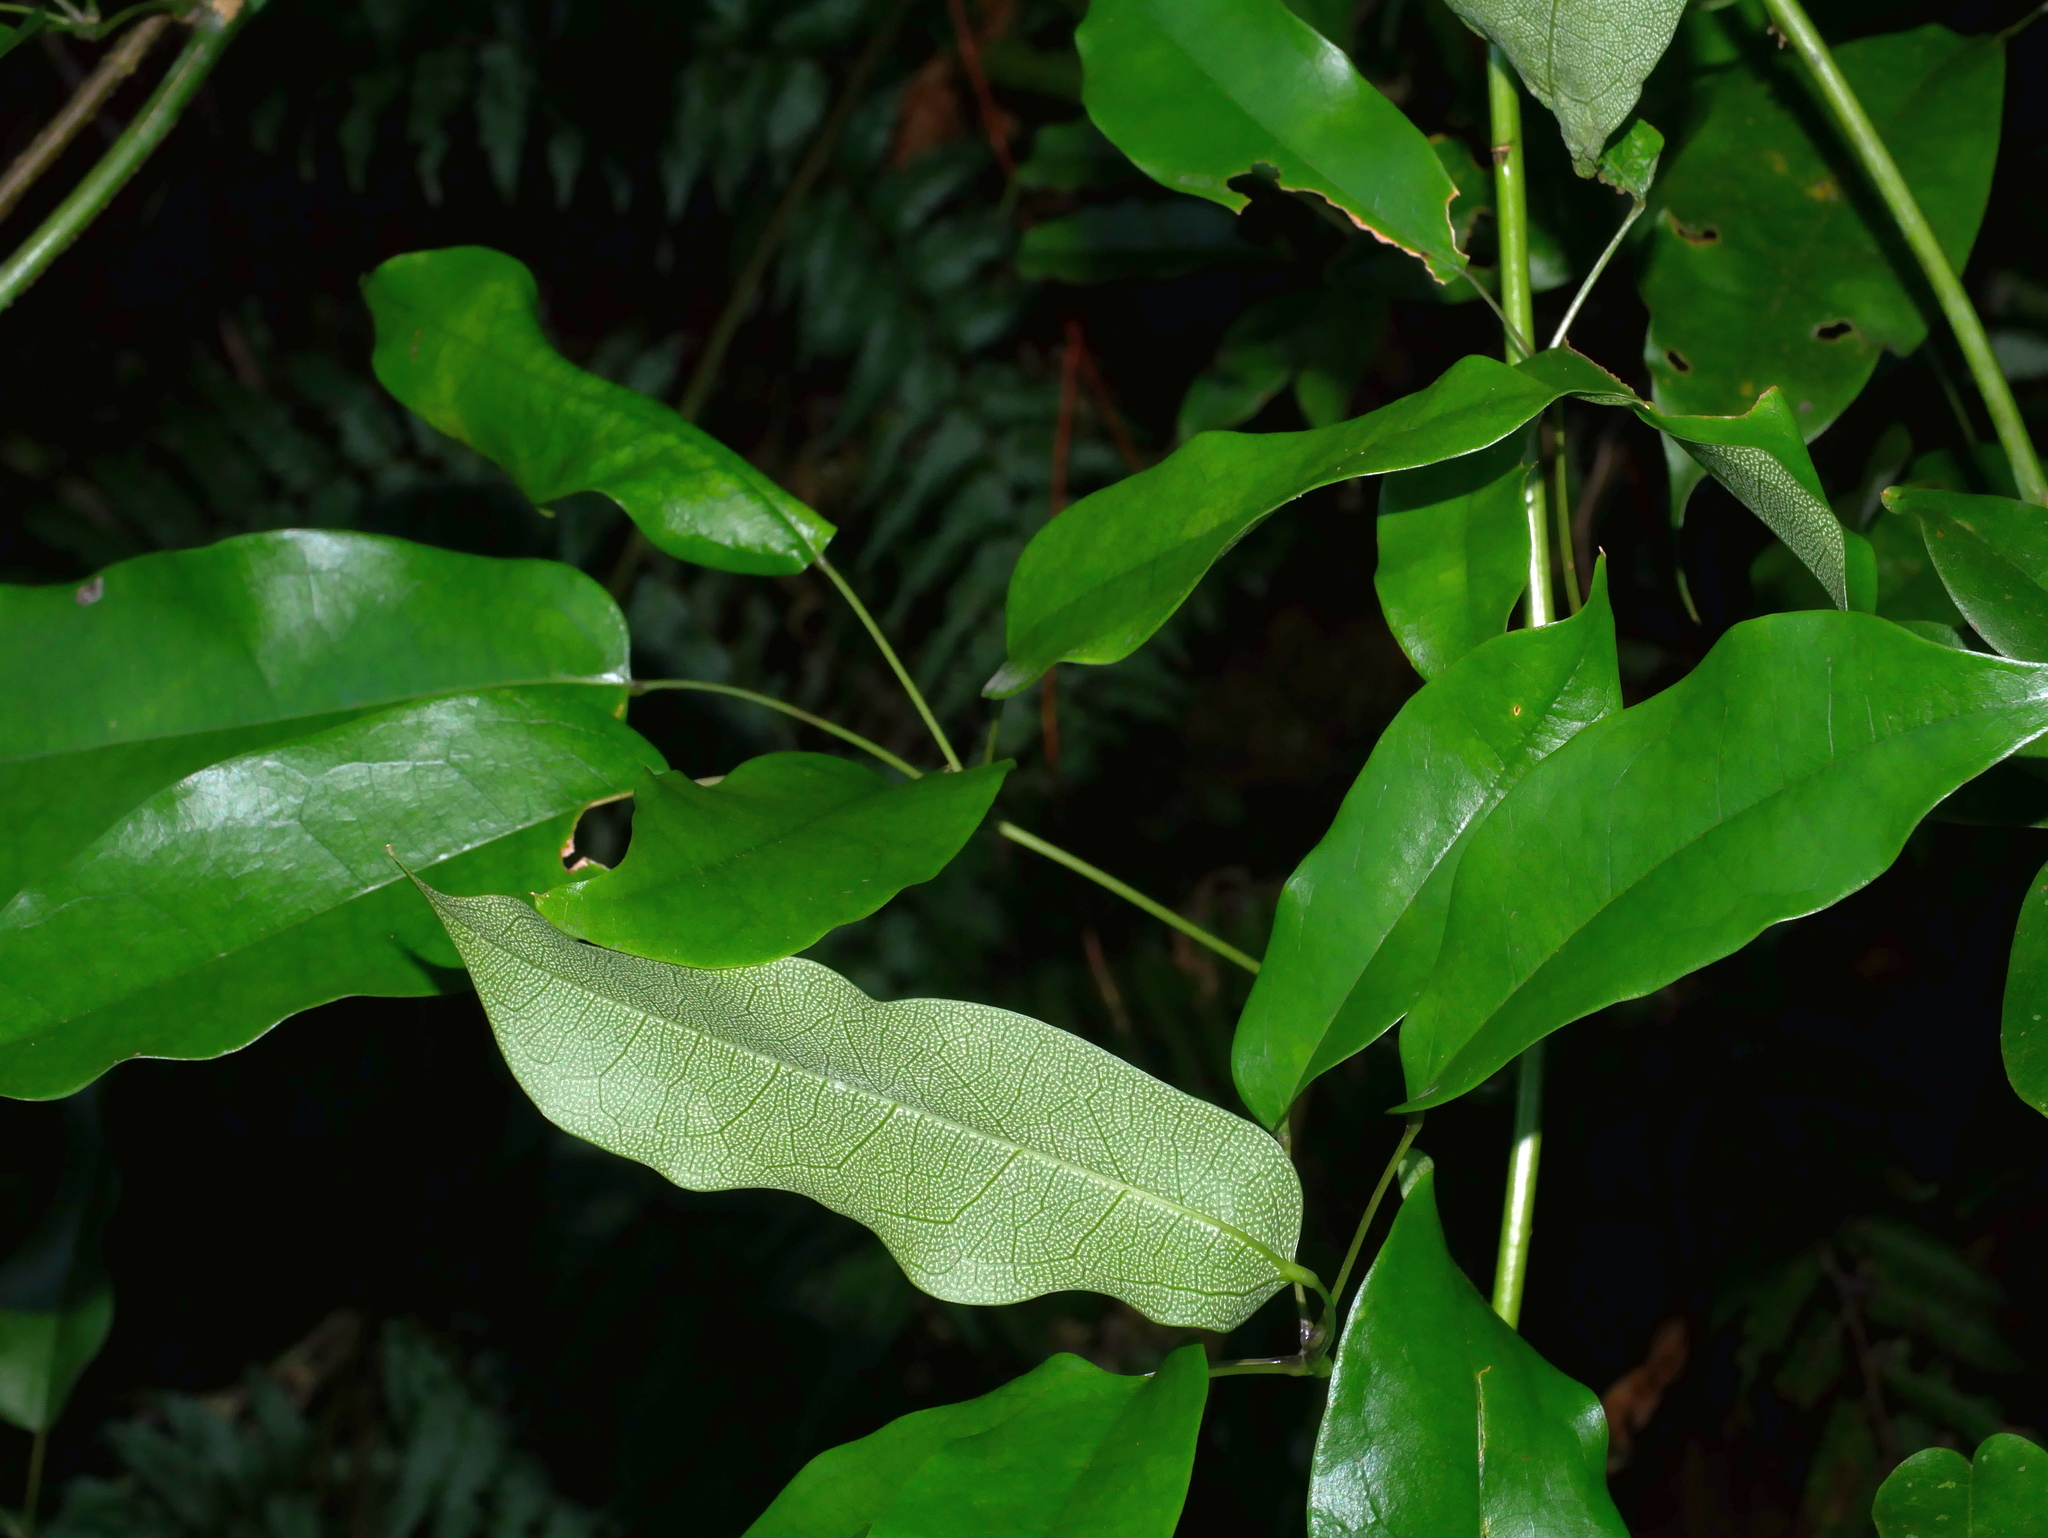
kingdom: Plantae
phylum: Tracheophyta
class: Magnoliopsida
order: Ranunculales
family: Lardizabalaceae
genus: Stauntonia
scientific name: Stauntonia obovatifoliola
